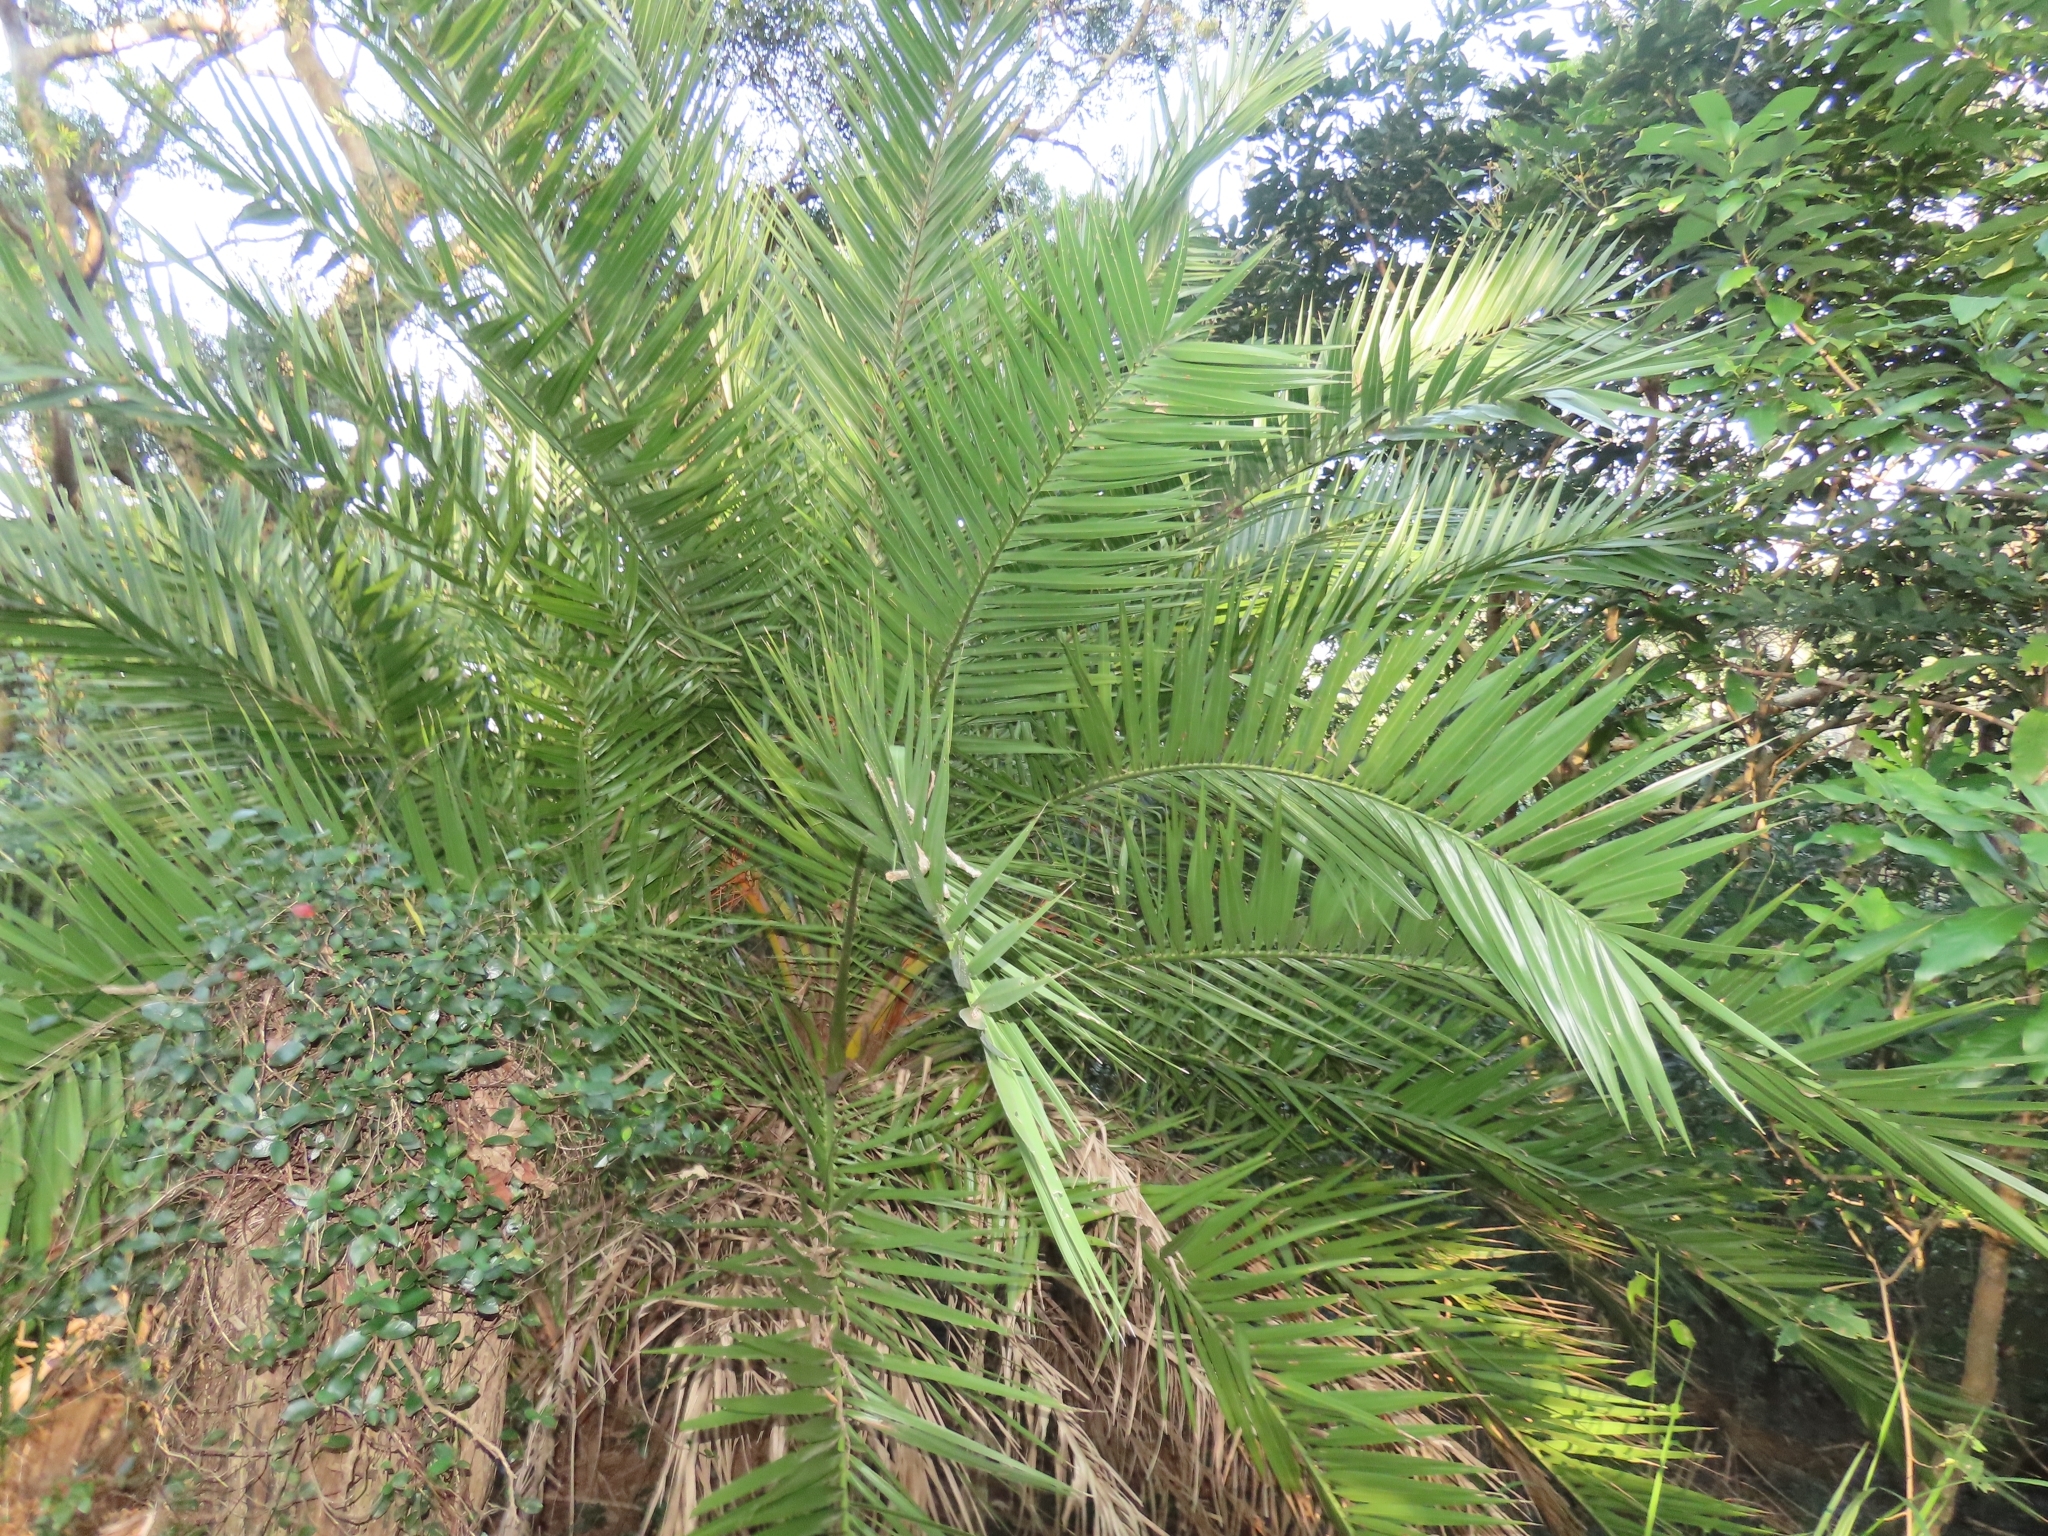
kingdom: Plantae
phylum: Tracheophyta
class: Liliopsida
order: Arecales
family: Arecaceae
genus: Phoenix
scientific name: Phoenix loureiroi
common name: Loureiro's palm
